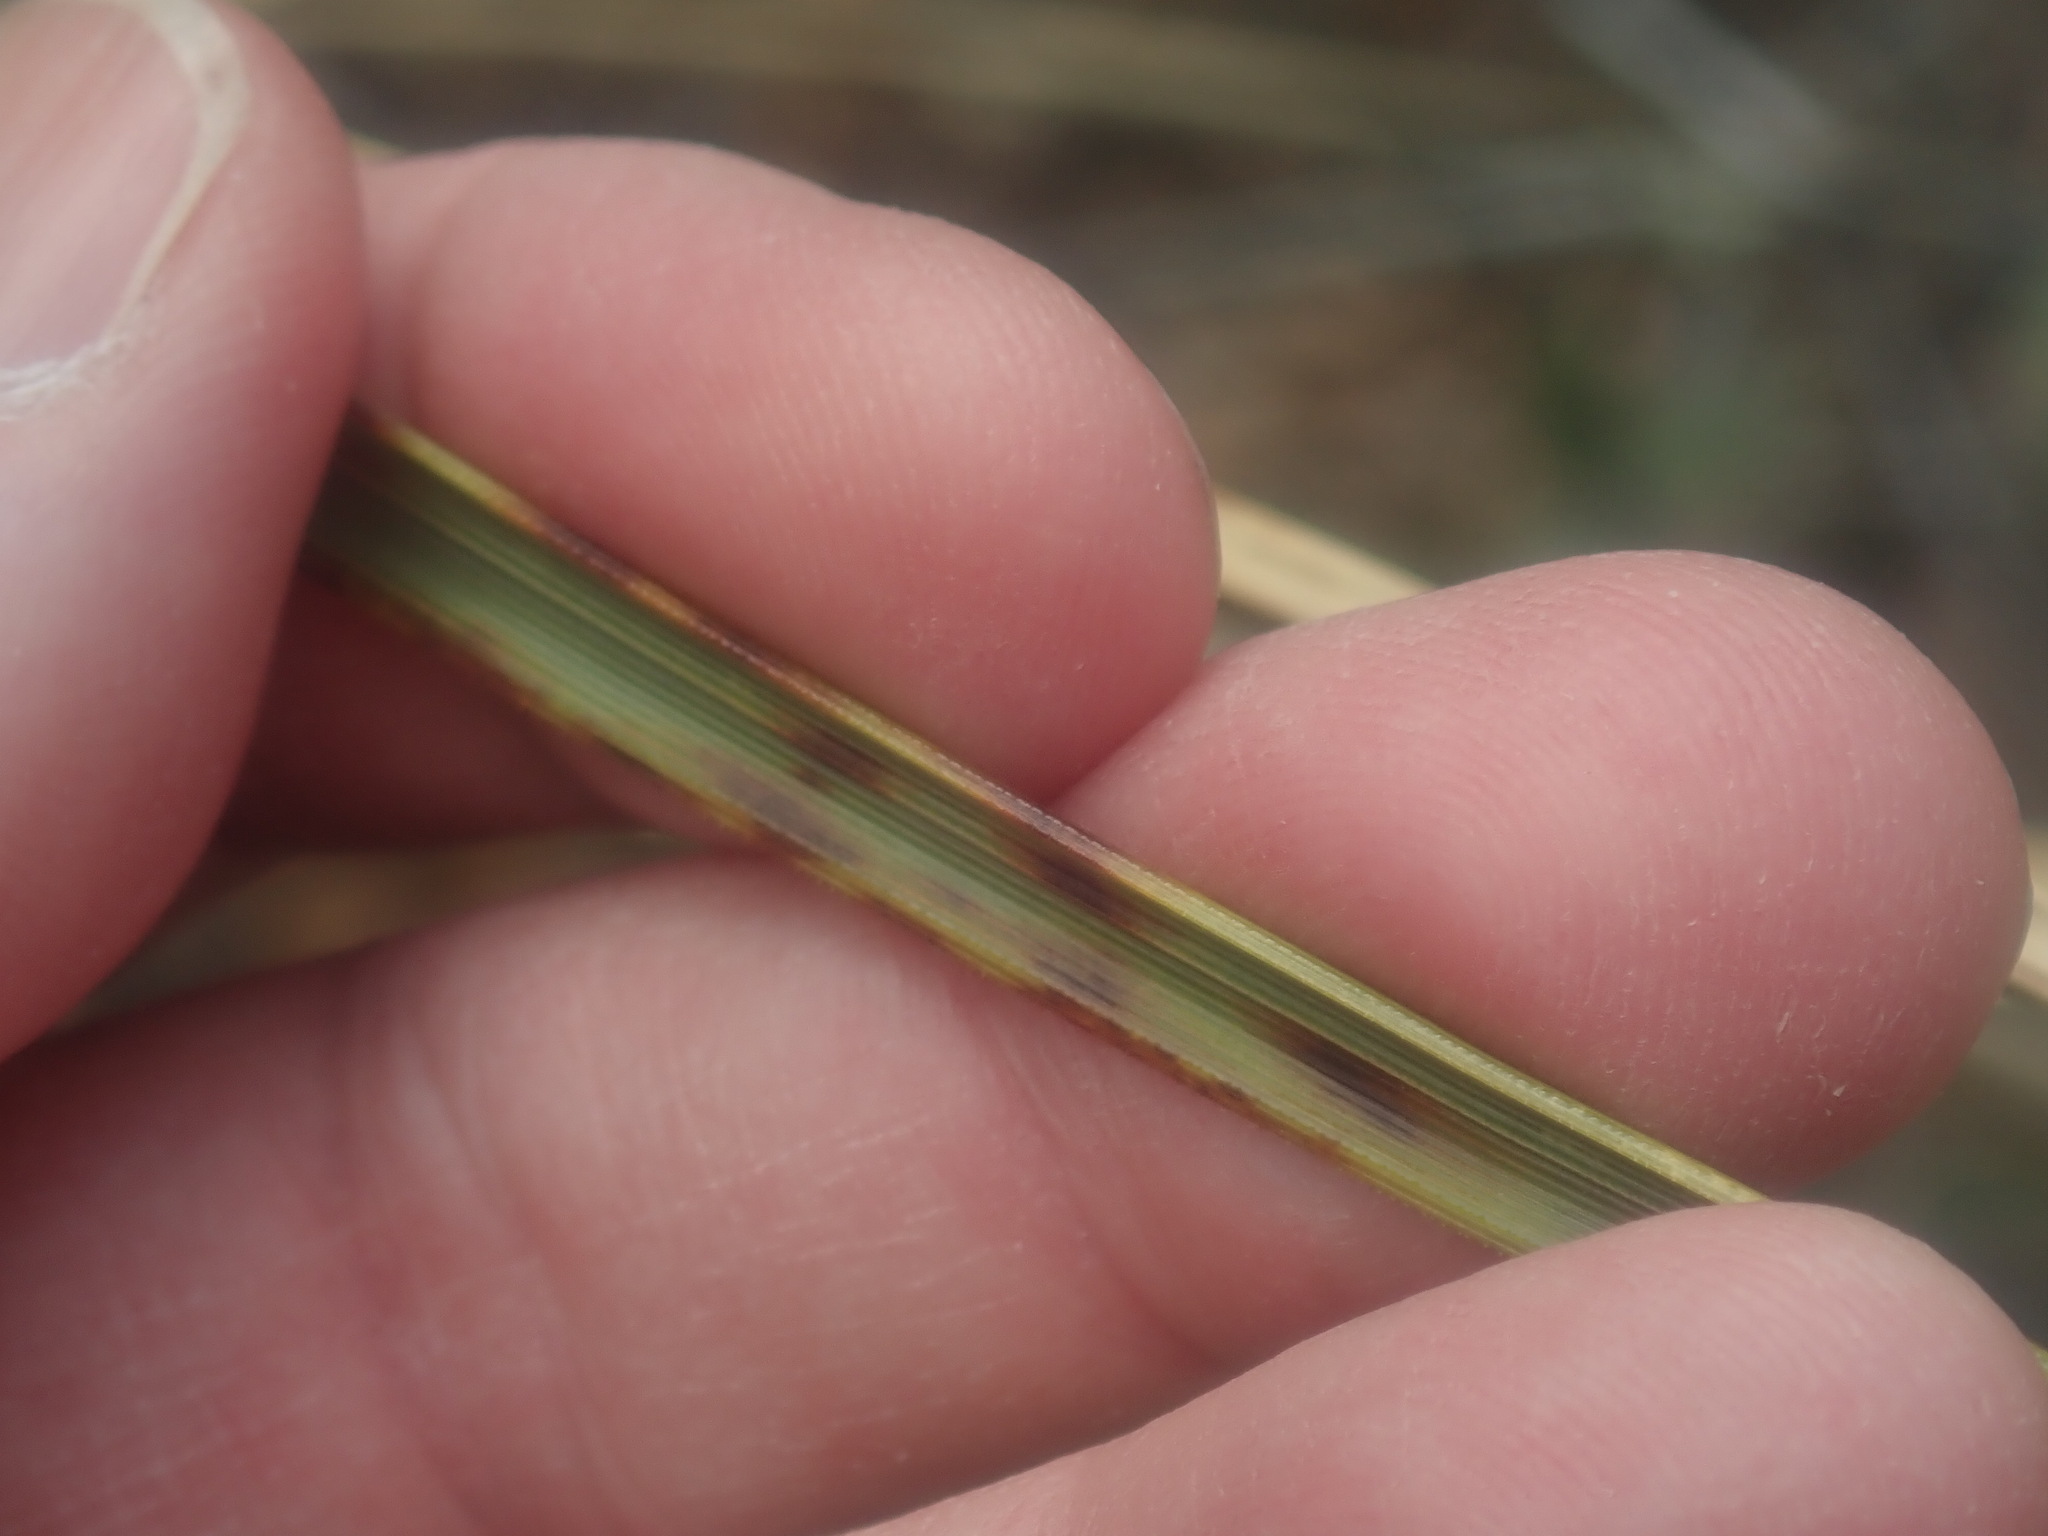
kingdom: Plantae
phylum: Tracheophyta
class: Liliopsida
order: Asparagales
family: Asparagaceae
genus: Nolina
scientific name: Nolina microcarpa
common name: Bear-grass
